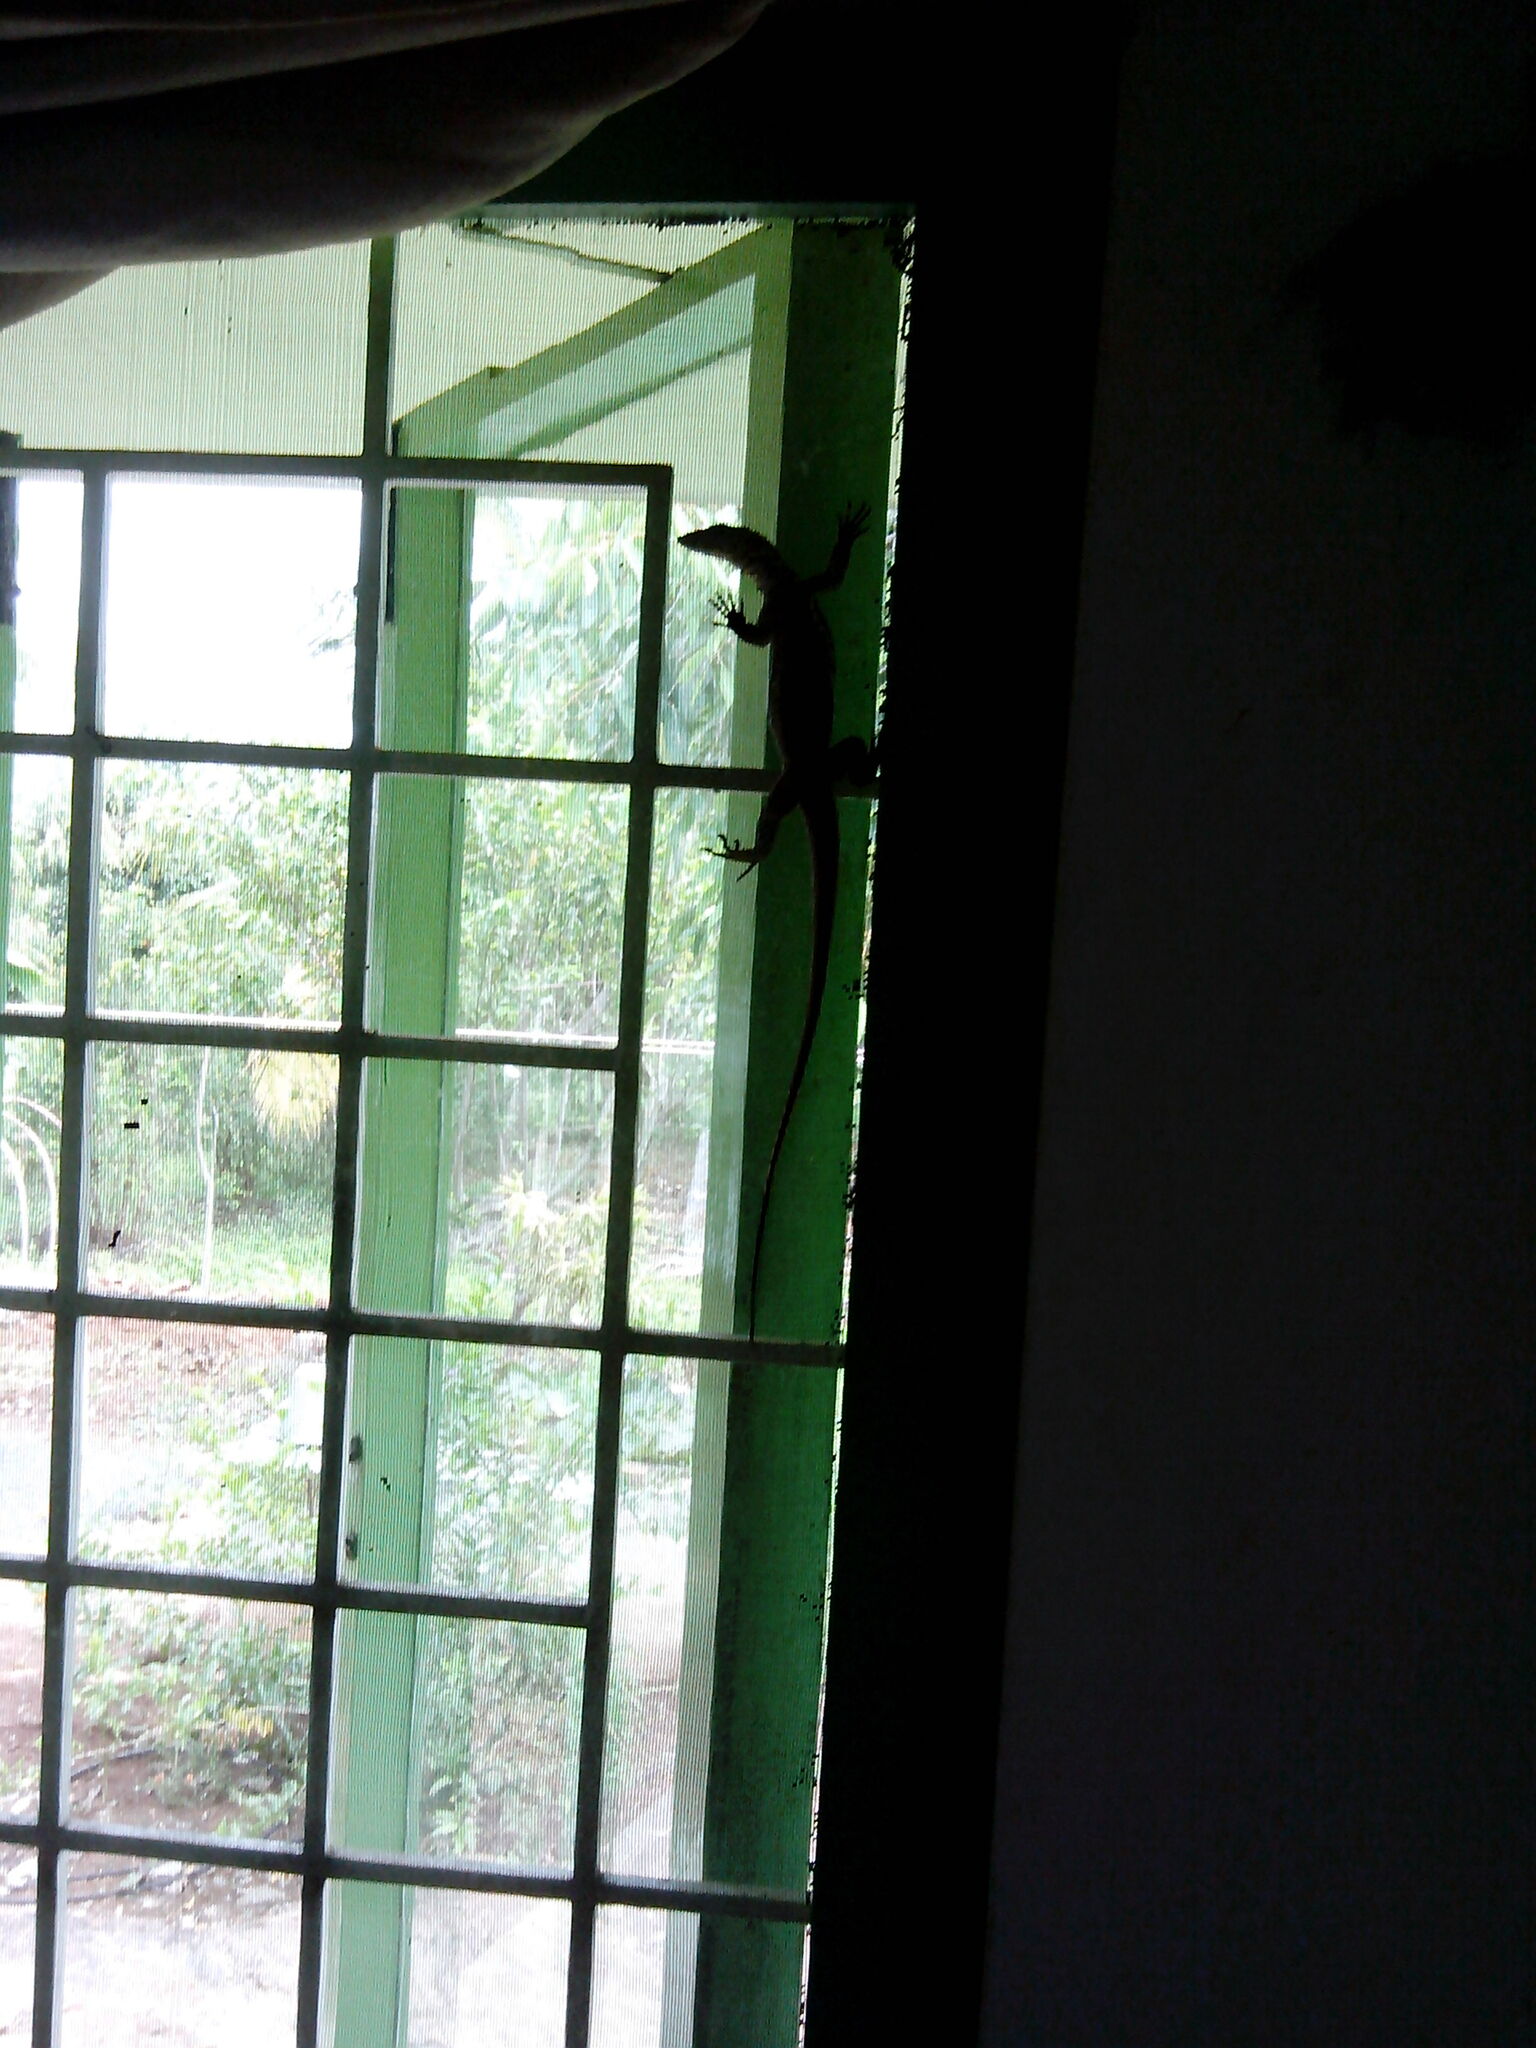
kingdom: Animalia
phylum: Chordata
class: Squamata
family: Varanidae
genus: Varanus
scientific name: Varanus bengalensis
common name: Bengal monitor
